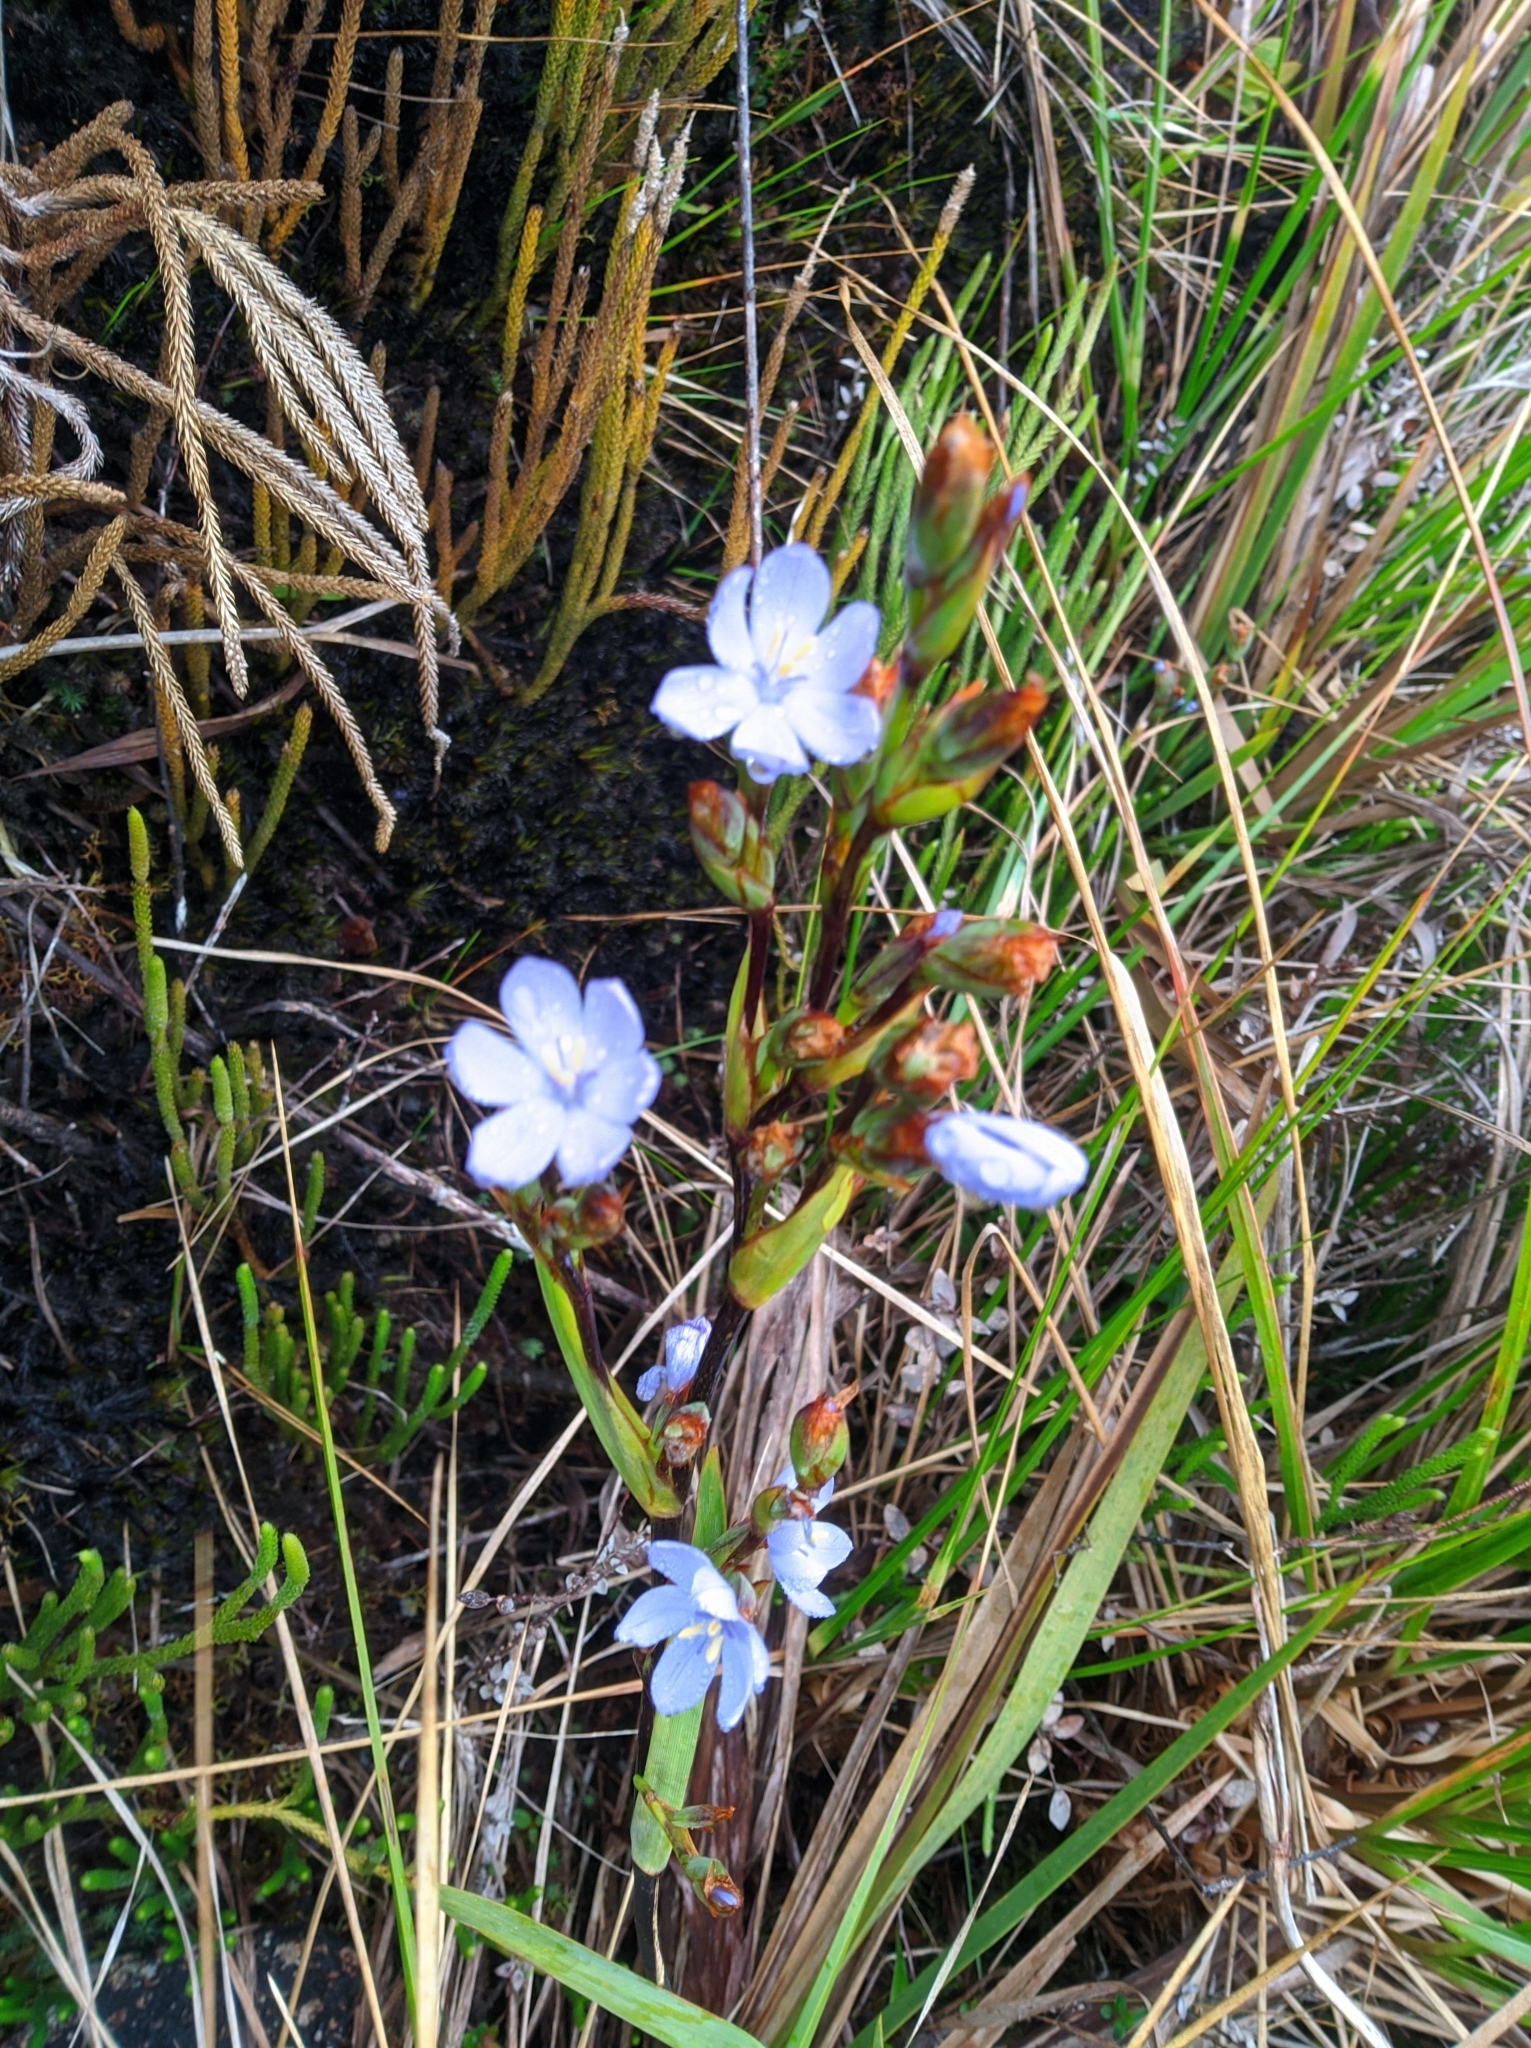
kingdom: Plantae
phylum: Tracheophyta
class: Liliopsida
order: Asparagales
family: Iridaceae
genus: Orthrosanthus
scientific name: Orthrosanthus acorifolius
